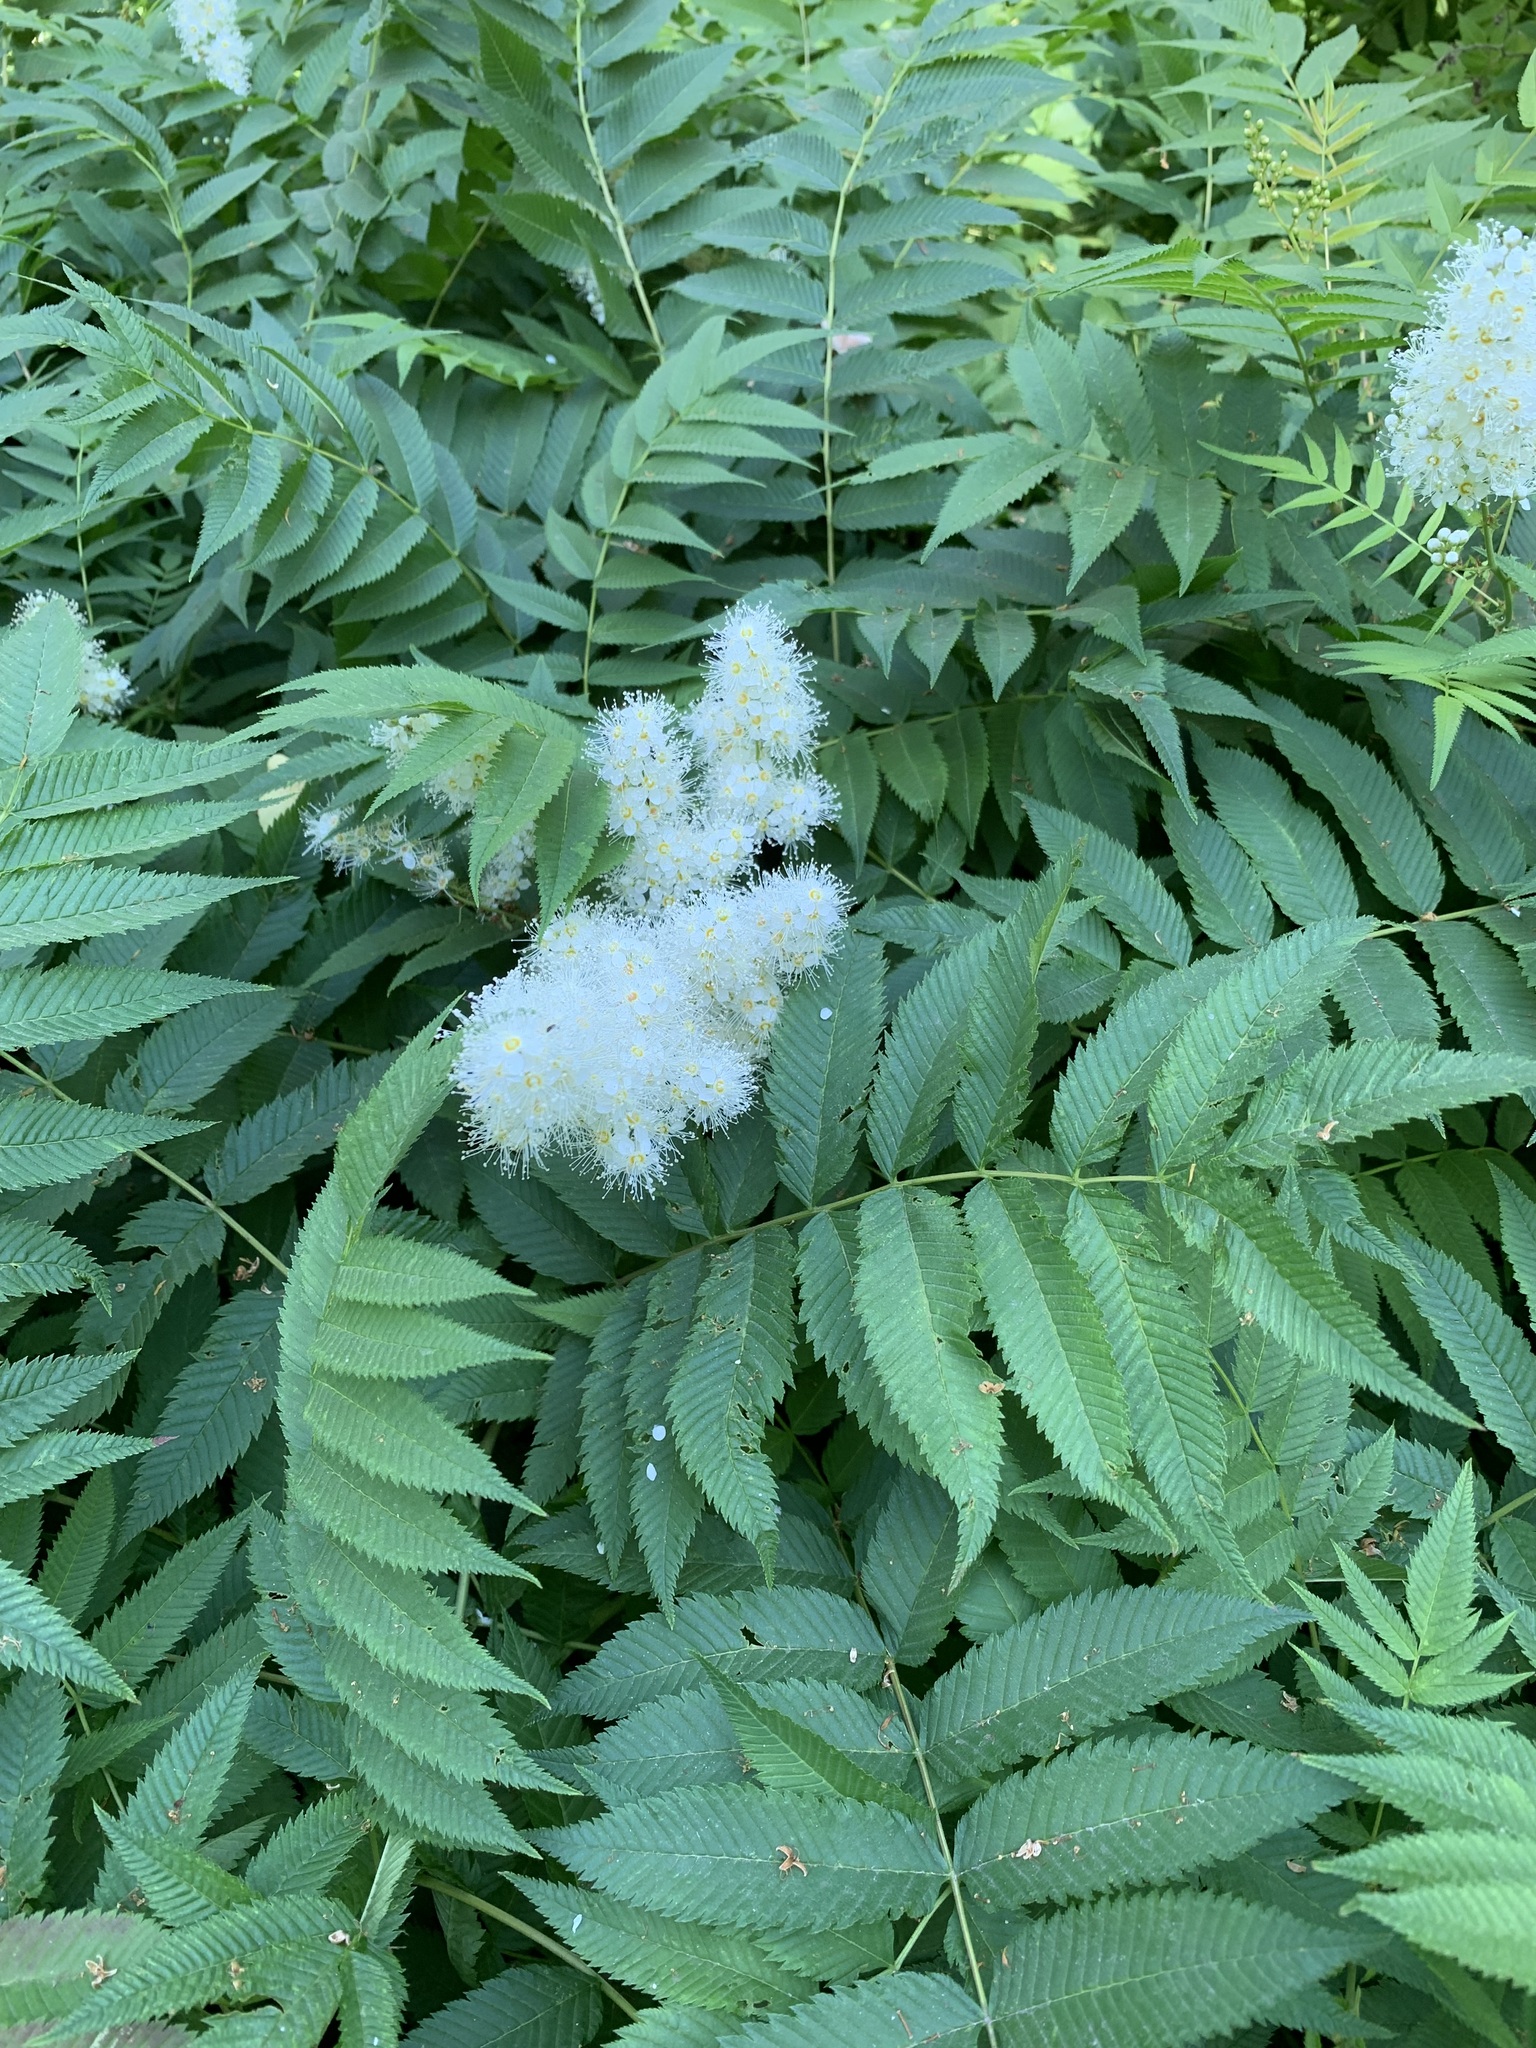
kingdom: Plantae
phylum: Tracheophyta
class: Magnoliopsida
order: Rosales
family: Rosaceae
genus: Sorbaria
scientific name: Sorbaria sorbifolia
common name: False spiraea
